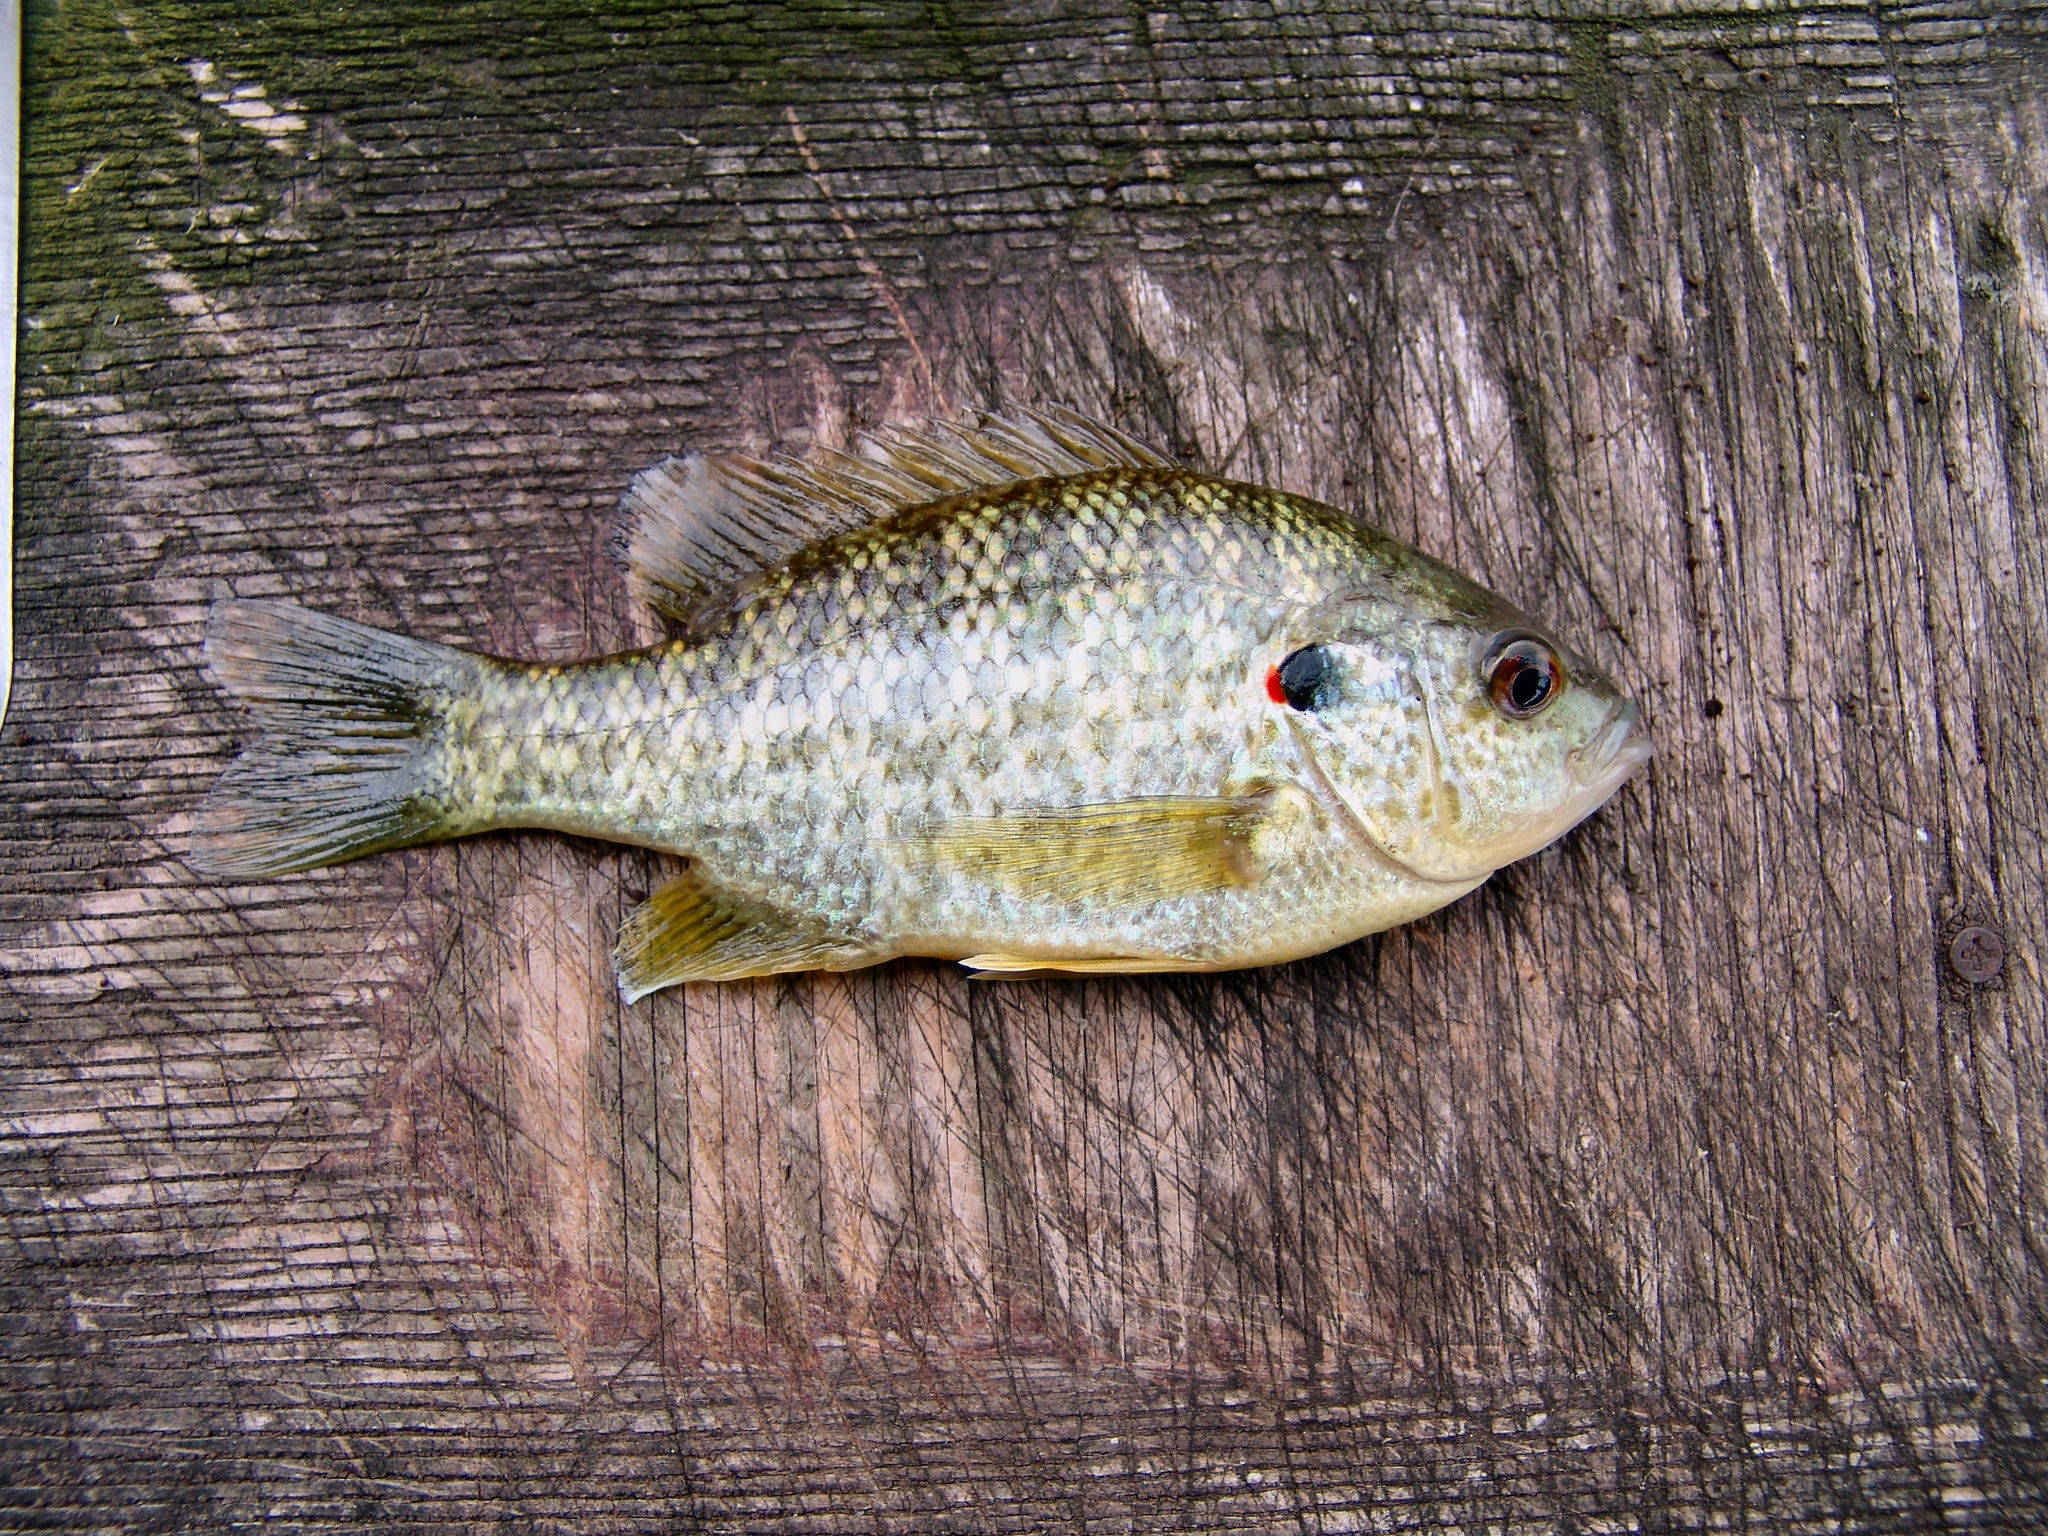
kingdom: Animalia
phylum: Chordata
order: Perciformes
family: Centrarchidae
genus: Lepomis
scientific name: Lepomis microlophus
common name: Redear sunfish
